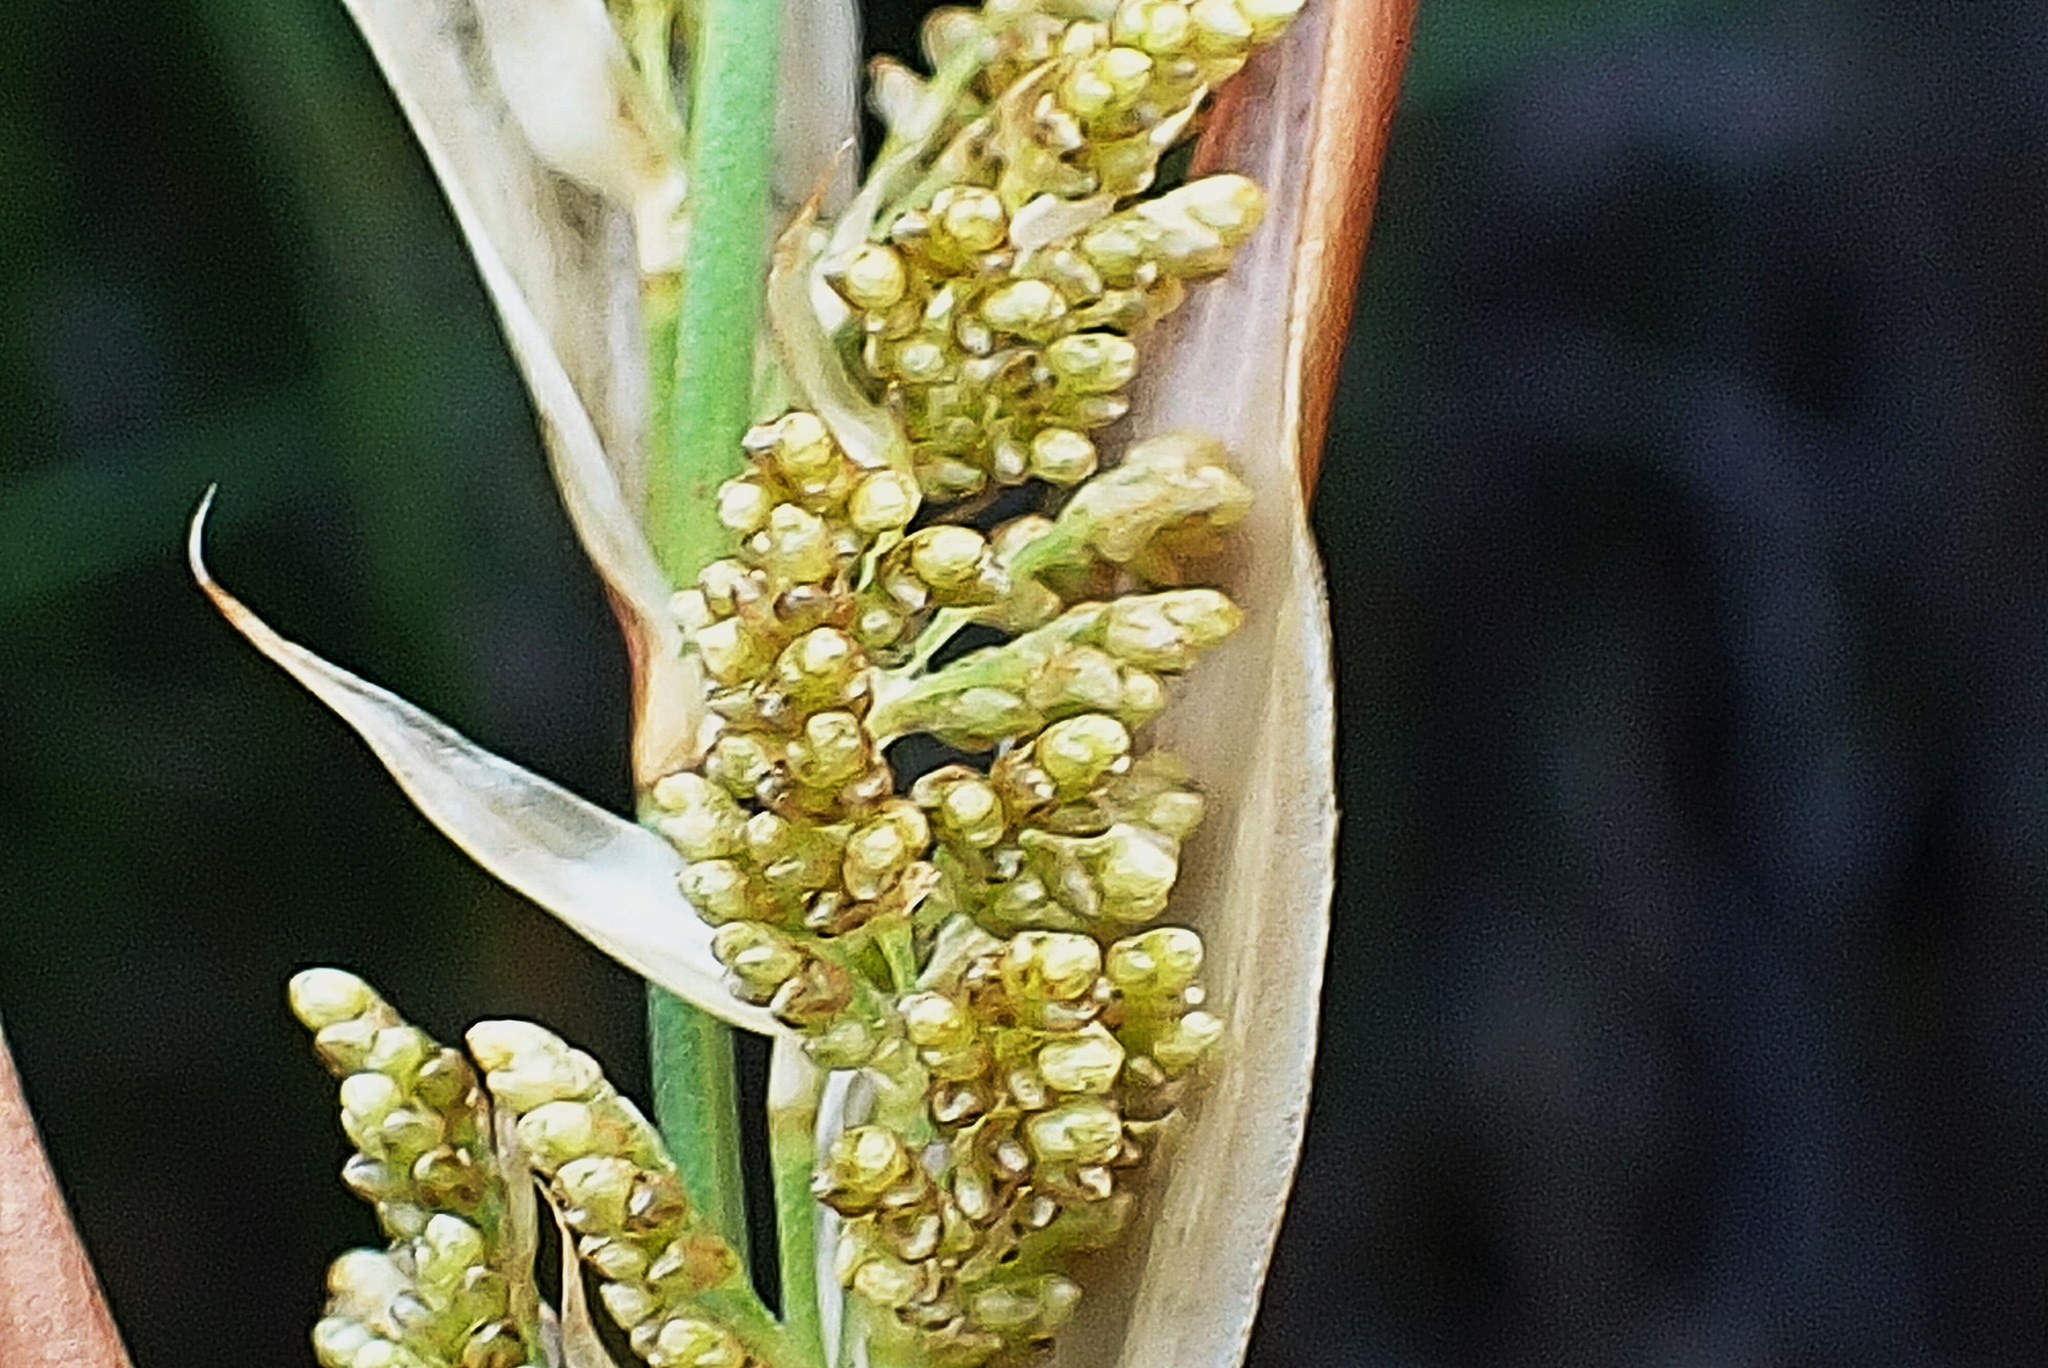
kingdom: Plantae
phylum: Tracheophyta
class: Liliopsida
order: Poales
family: Restionaceae
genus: Elegia
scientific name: Elegia equisetacea
